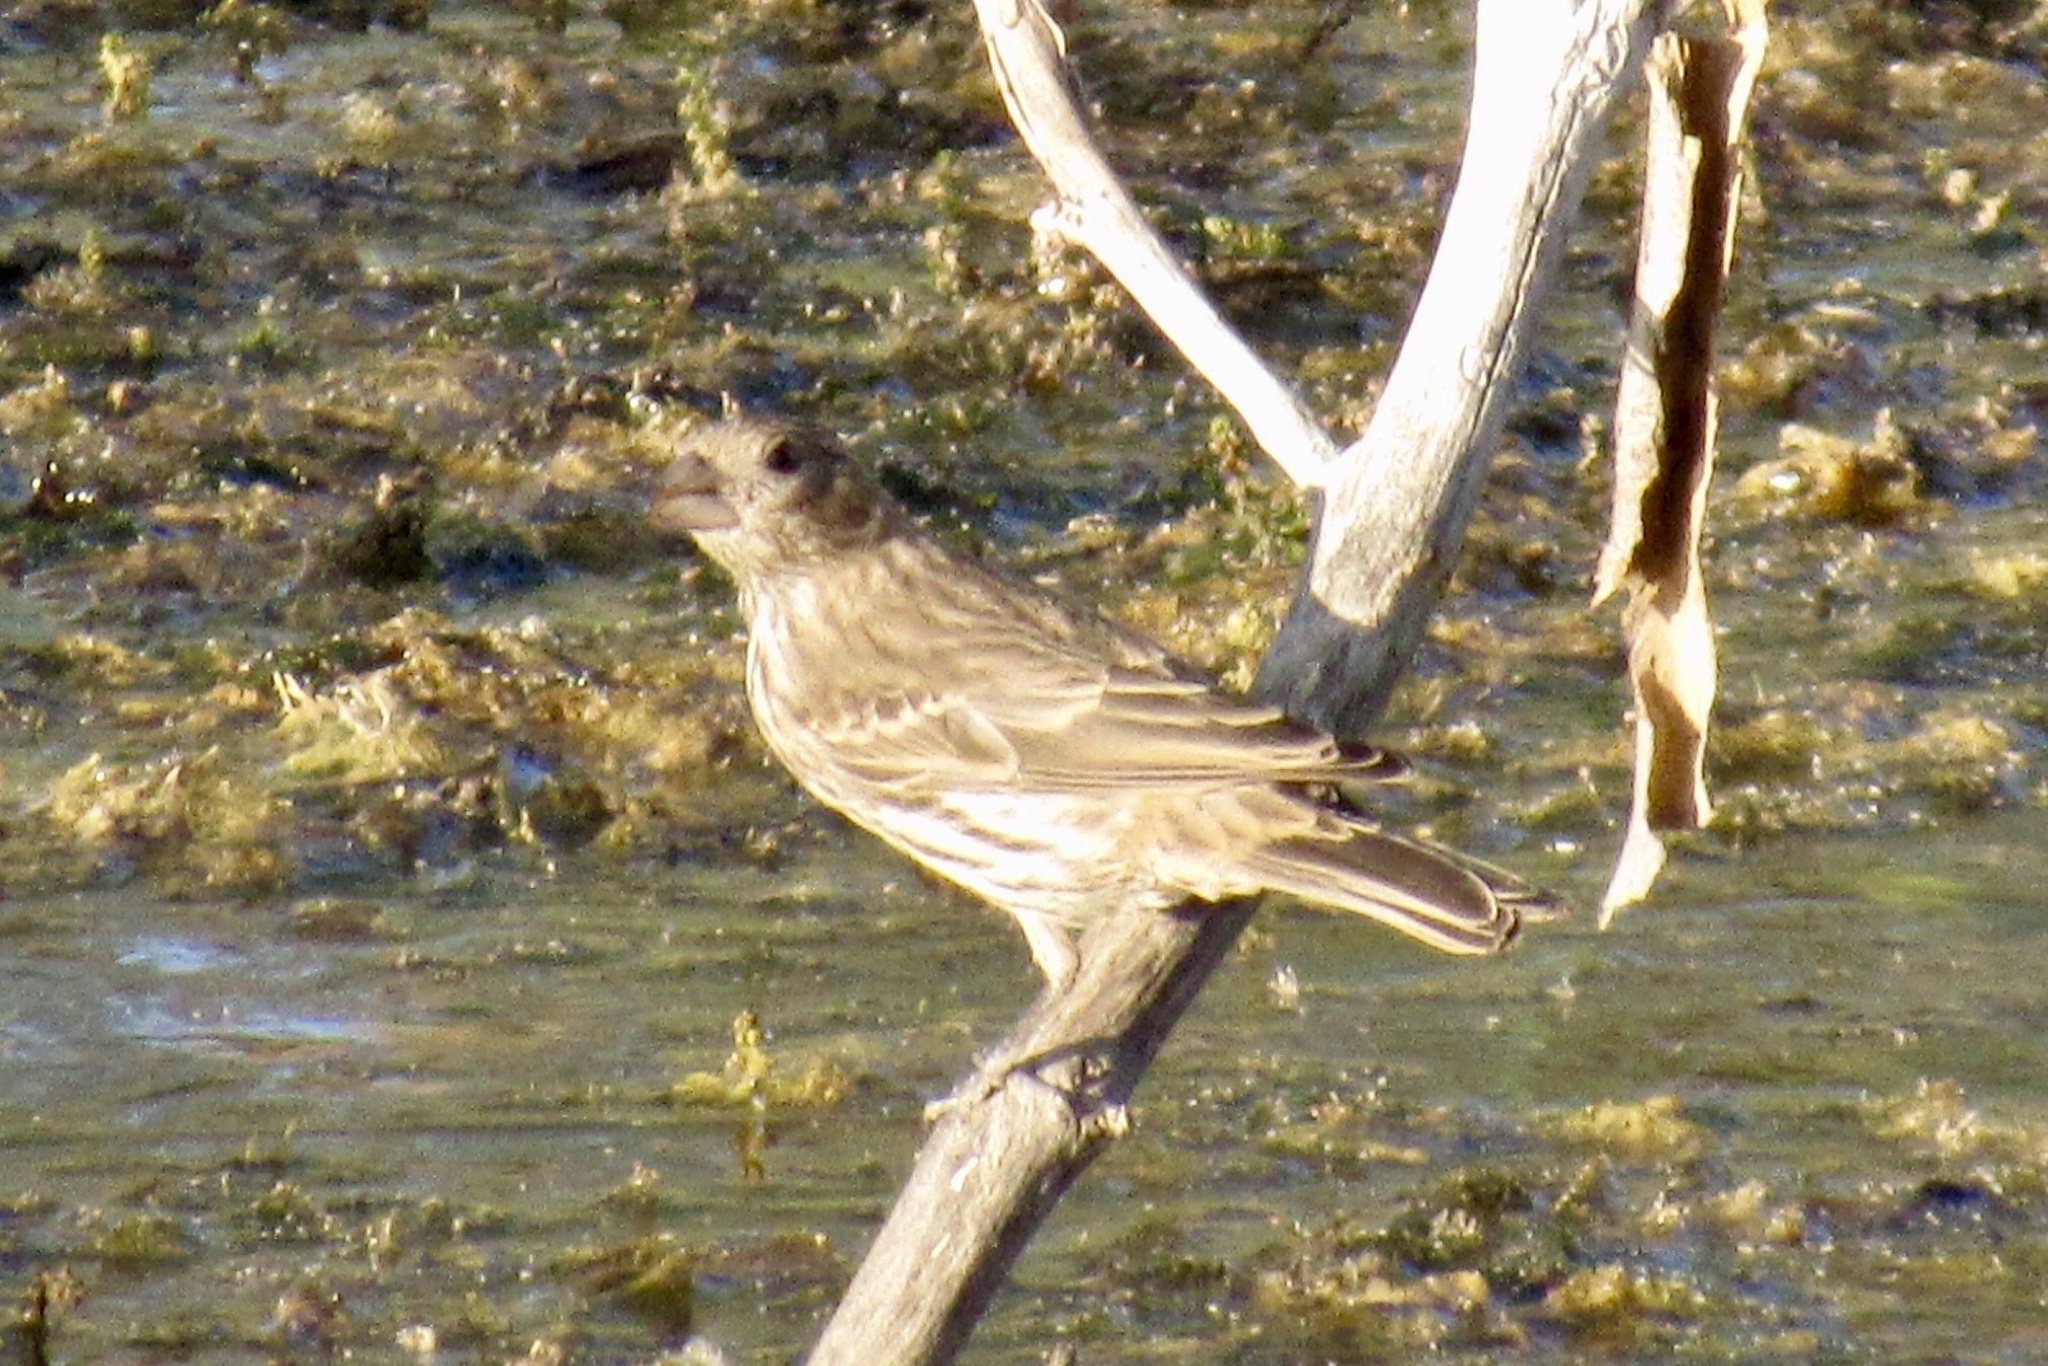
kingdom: Animalia
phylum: Chordata
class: Aves
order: Passeriformes
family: Fringillidae
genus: Haemorhous
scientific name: Haemorhous mexicanus
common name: House finch
